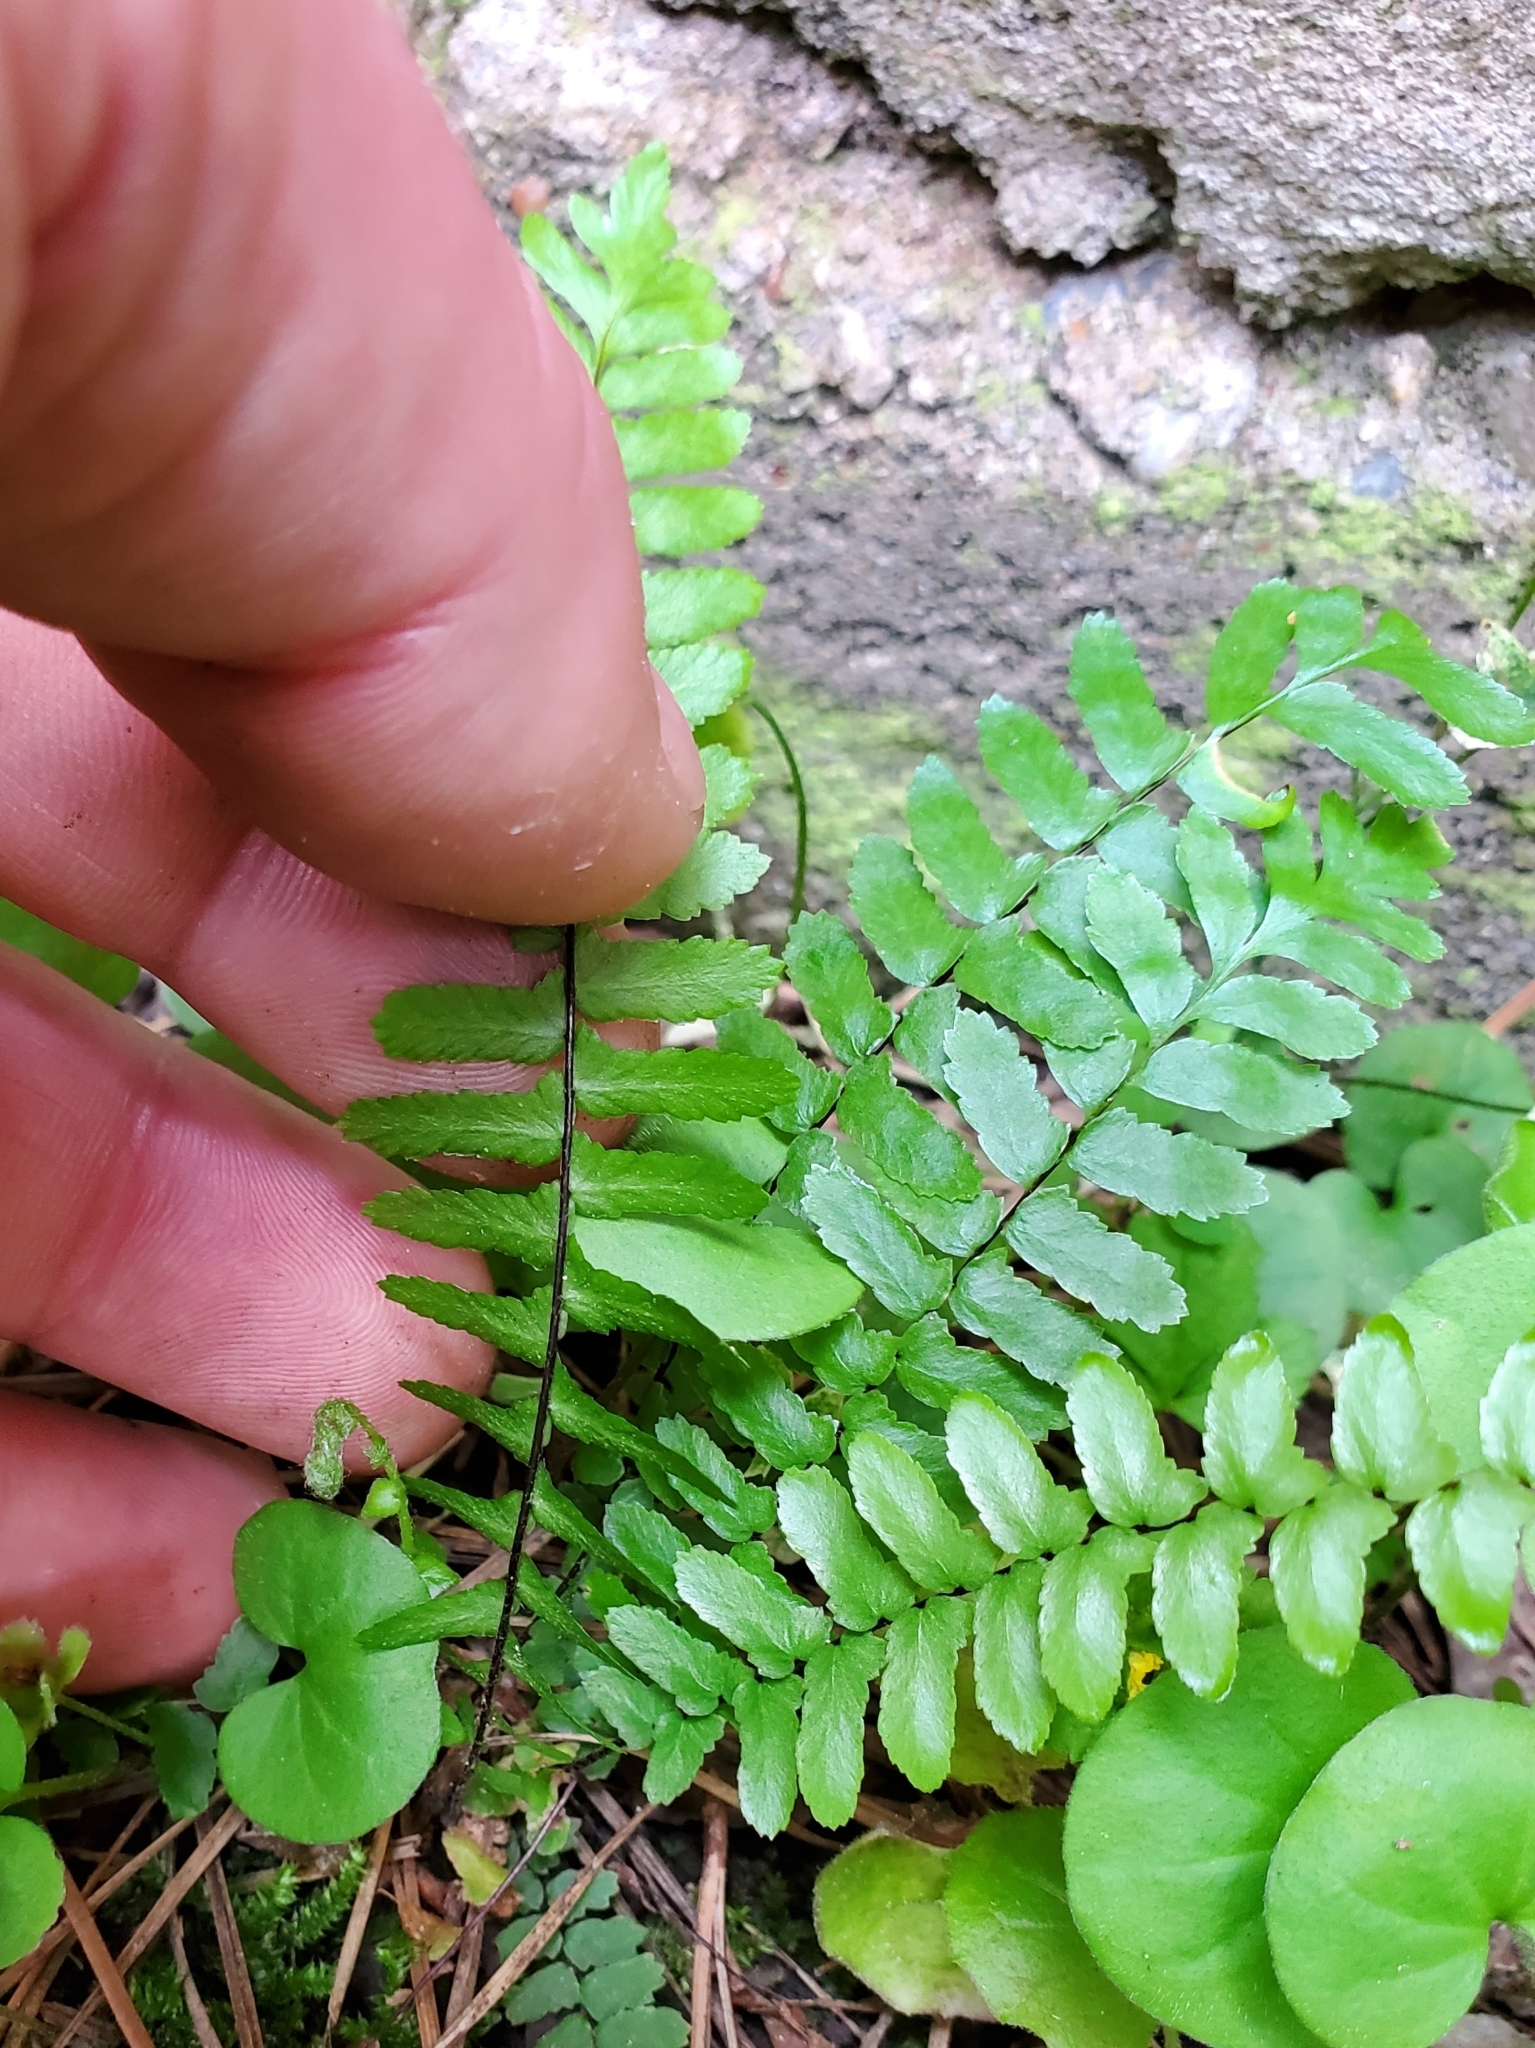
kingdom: Plantae
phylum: Tracheophyta
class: Polypodiopsida
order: Polypodiales
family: Aspleniaceae
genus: Asplenium
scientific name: Asplenium platyneuron
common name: Ebony spleenwort
